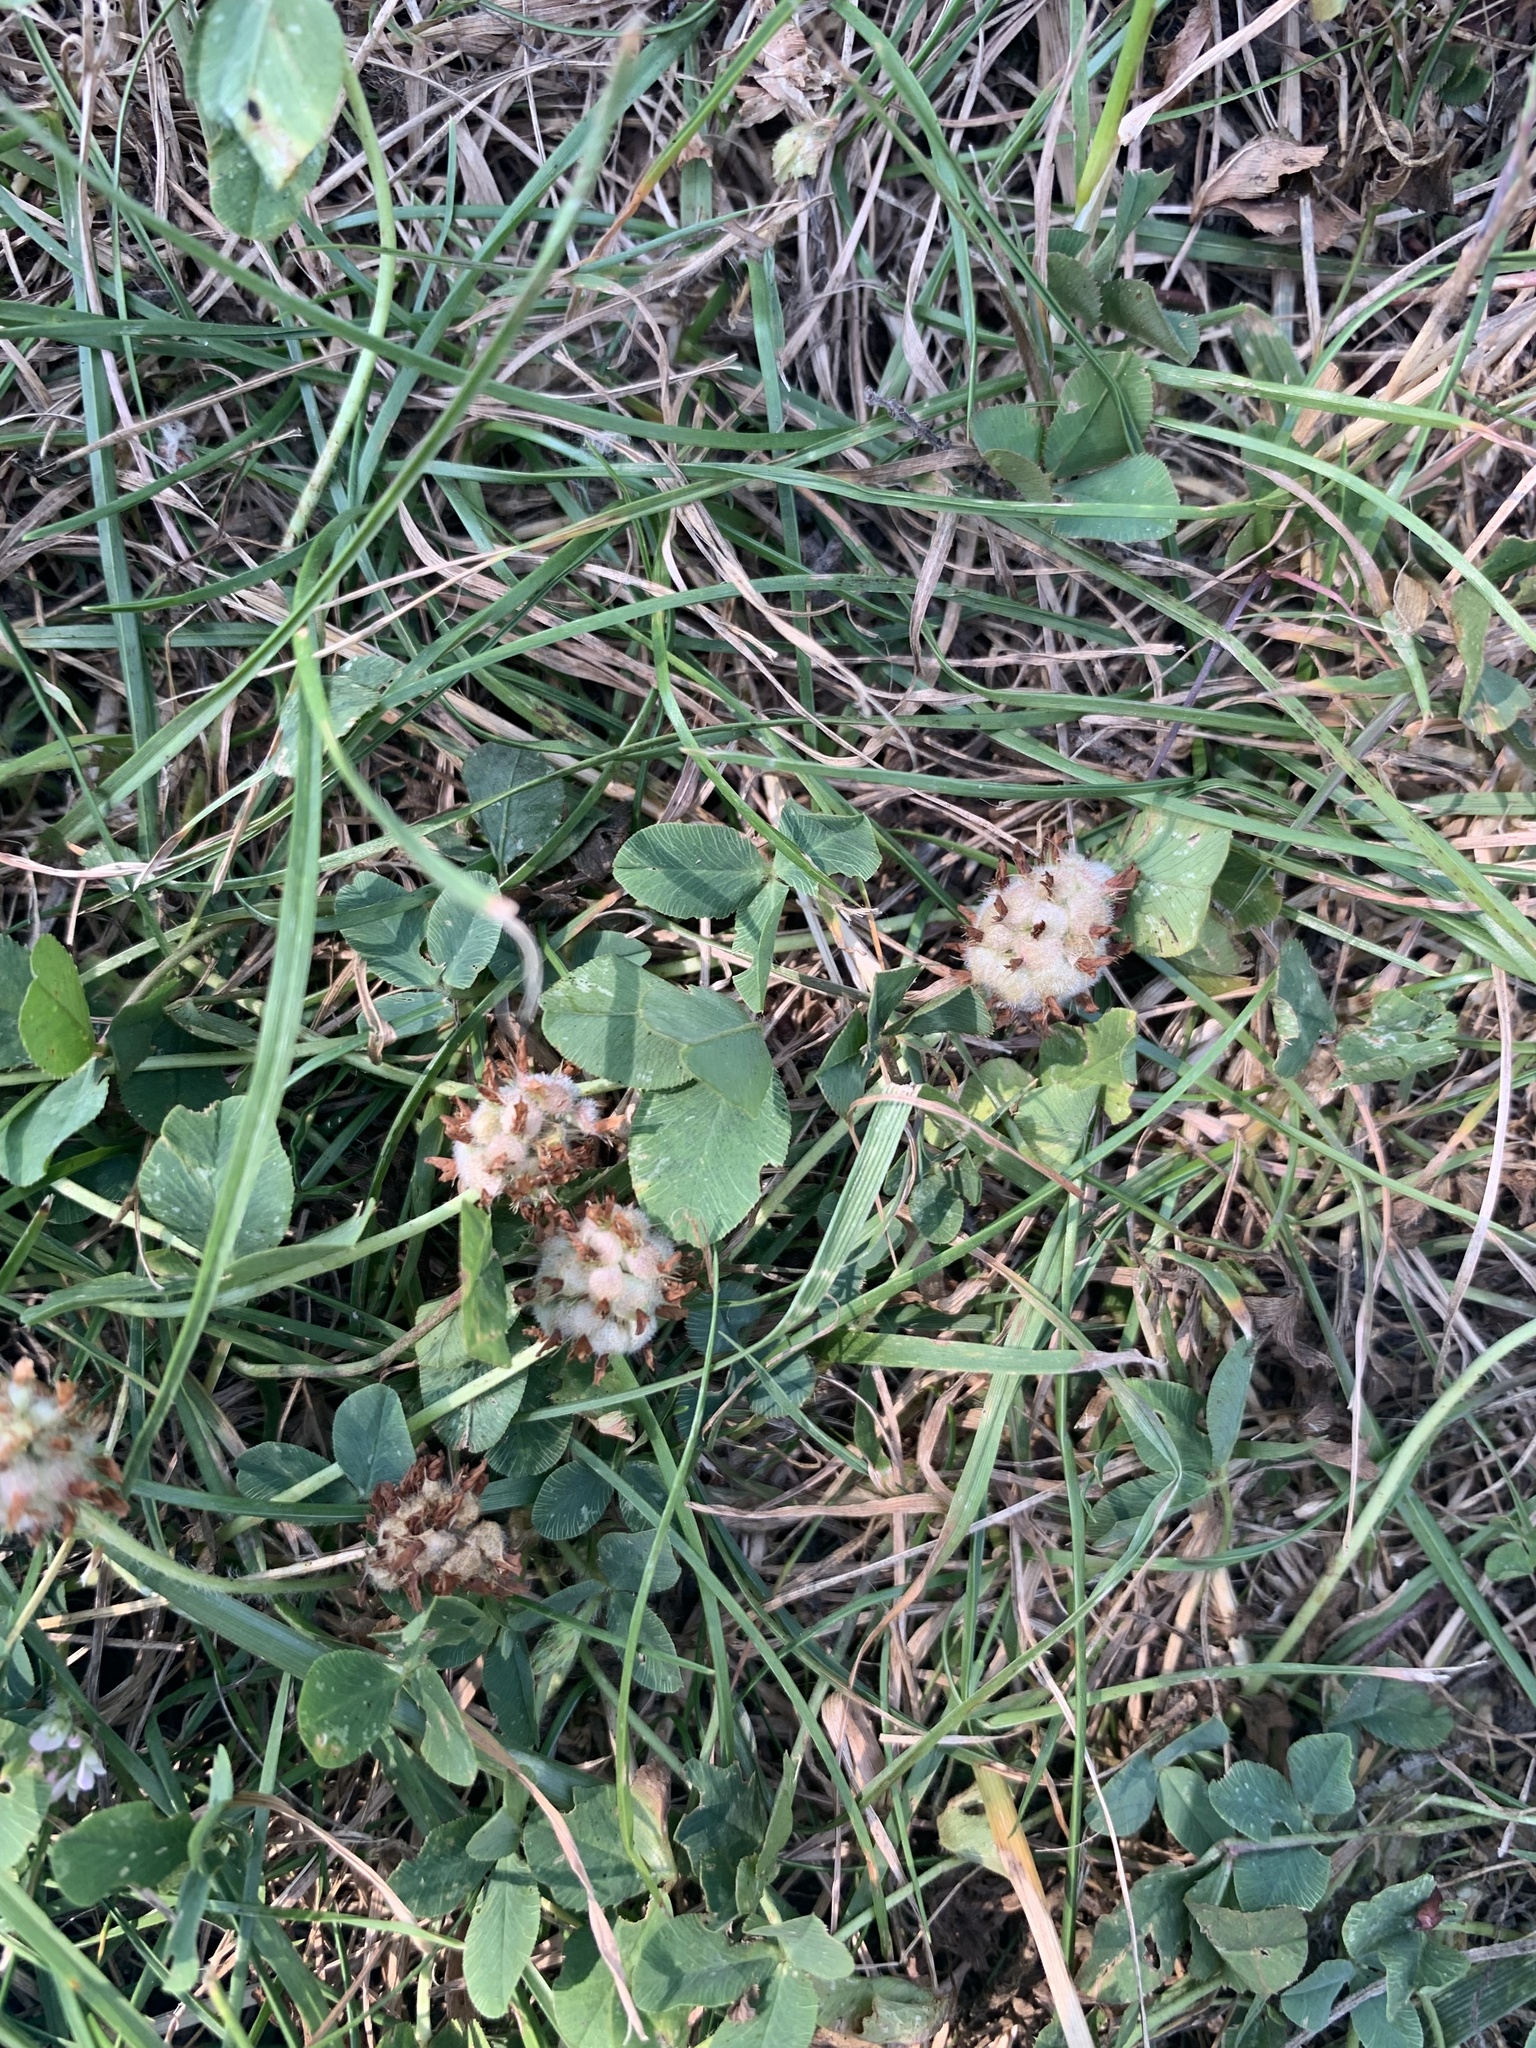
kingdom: Plantae
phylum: Tracheophyta
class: Magnoliopsida
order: Fabales
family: Fabaceae
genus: Trifolium
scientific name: Trifolium fragiferum
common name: Strawberry clover
